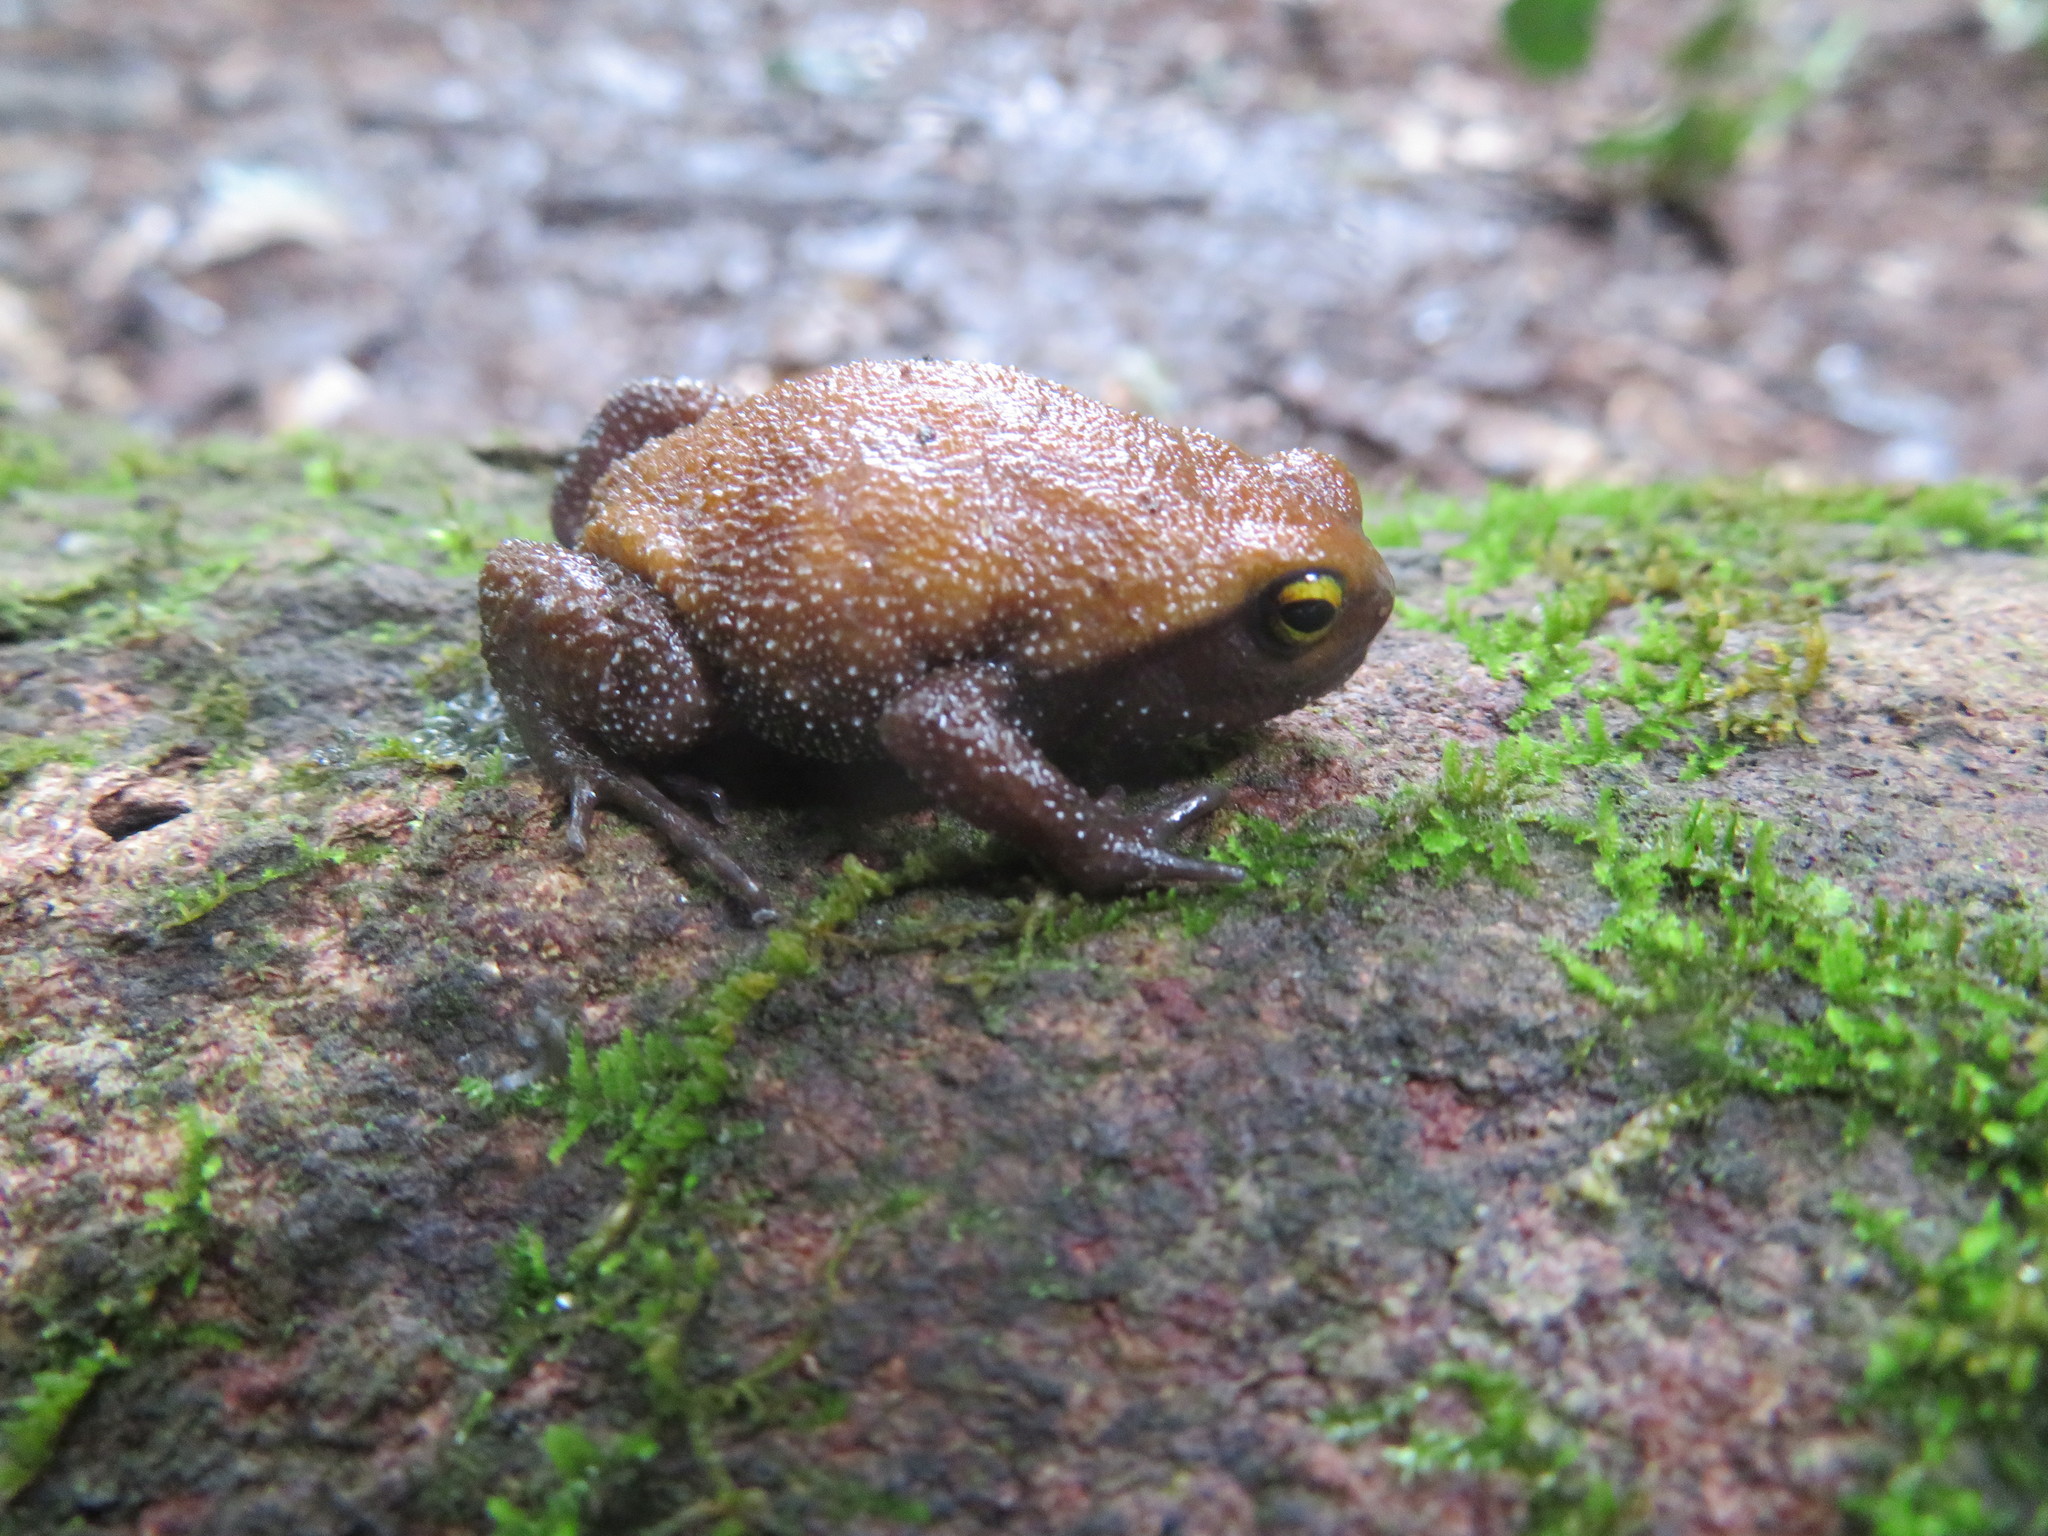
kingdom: Animalia
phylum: Chordata
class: Amphibia
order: Anura
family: Brevicipitidae
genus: Probreviceps
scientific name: Probreviceps loveridgei
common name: Loveridge's forest frog
